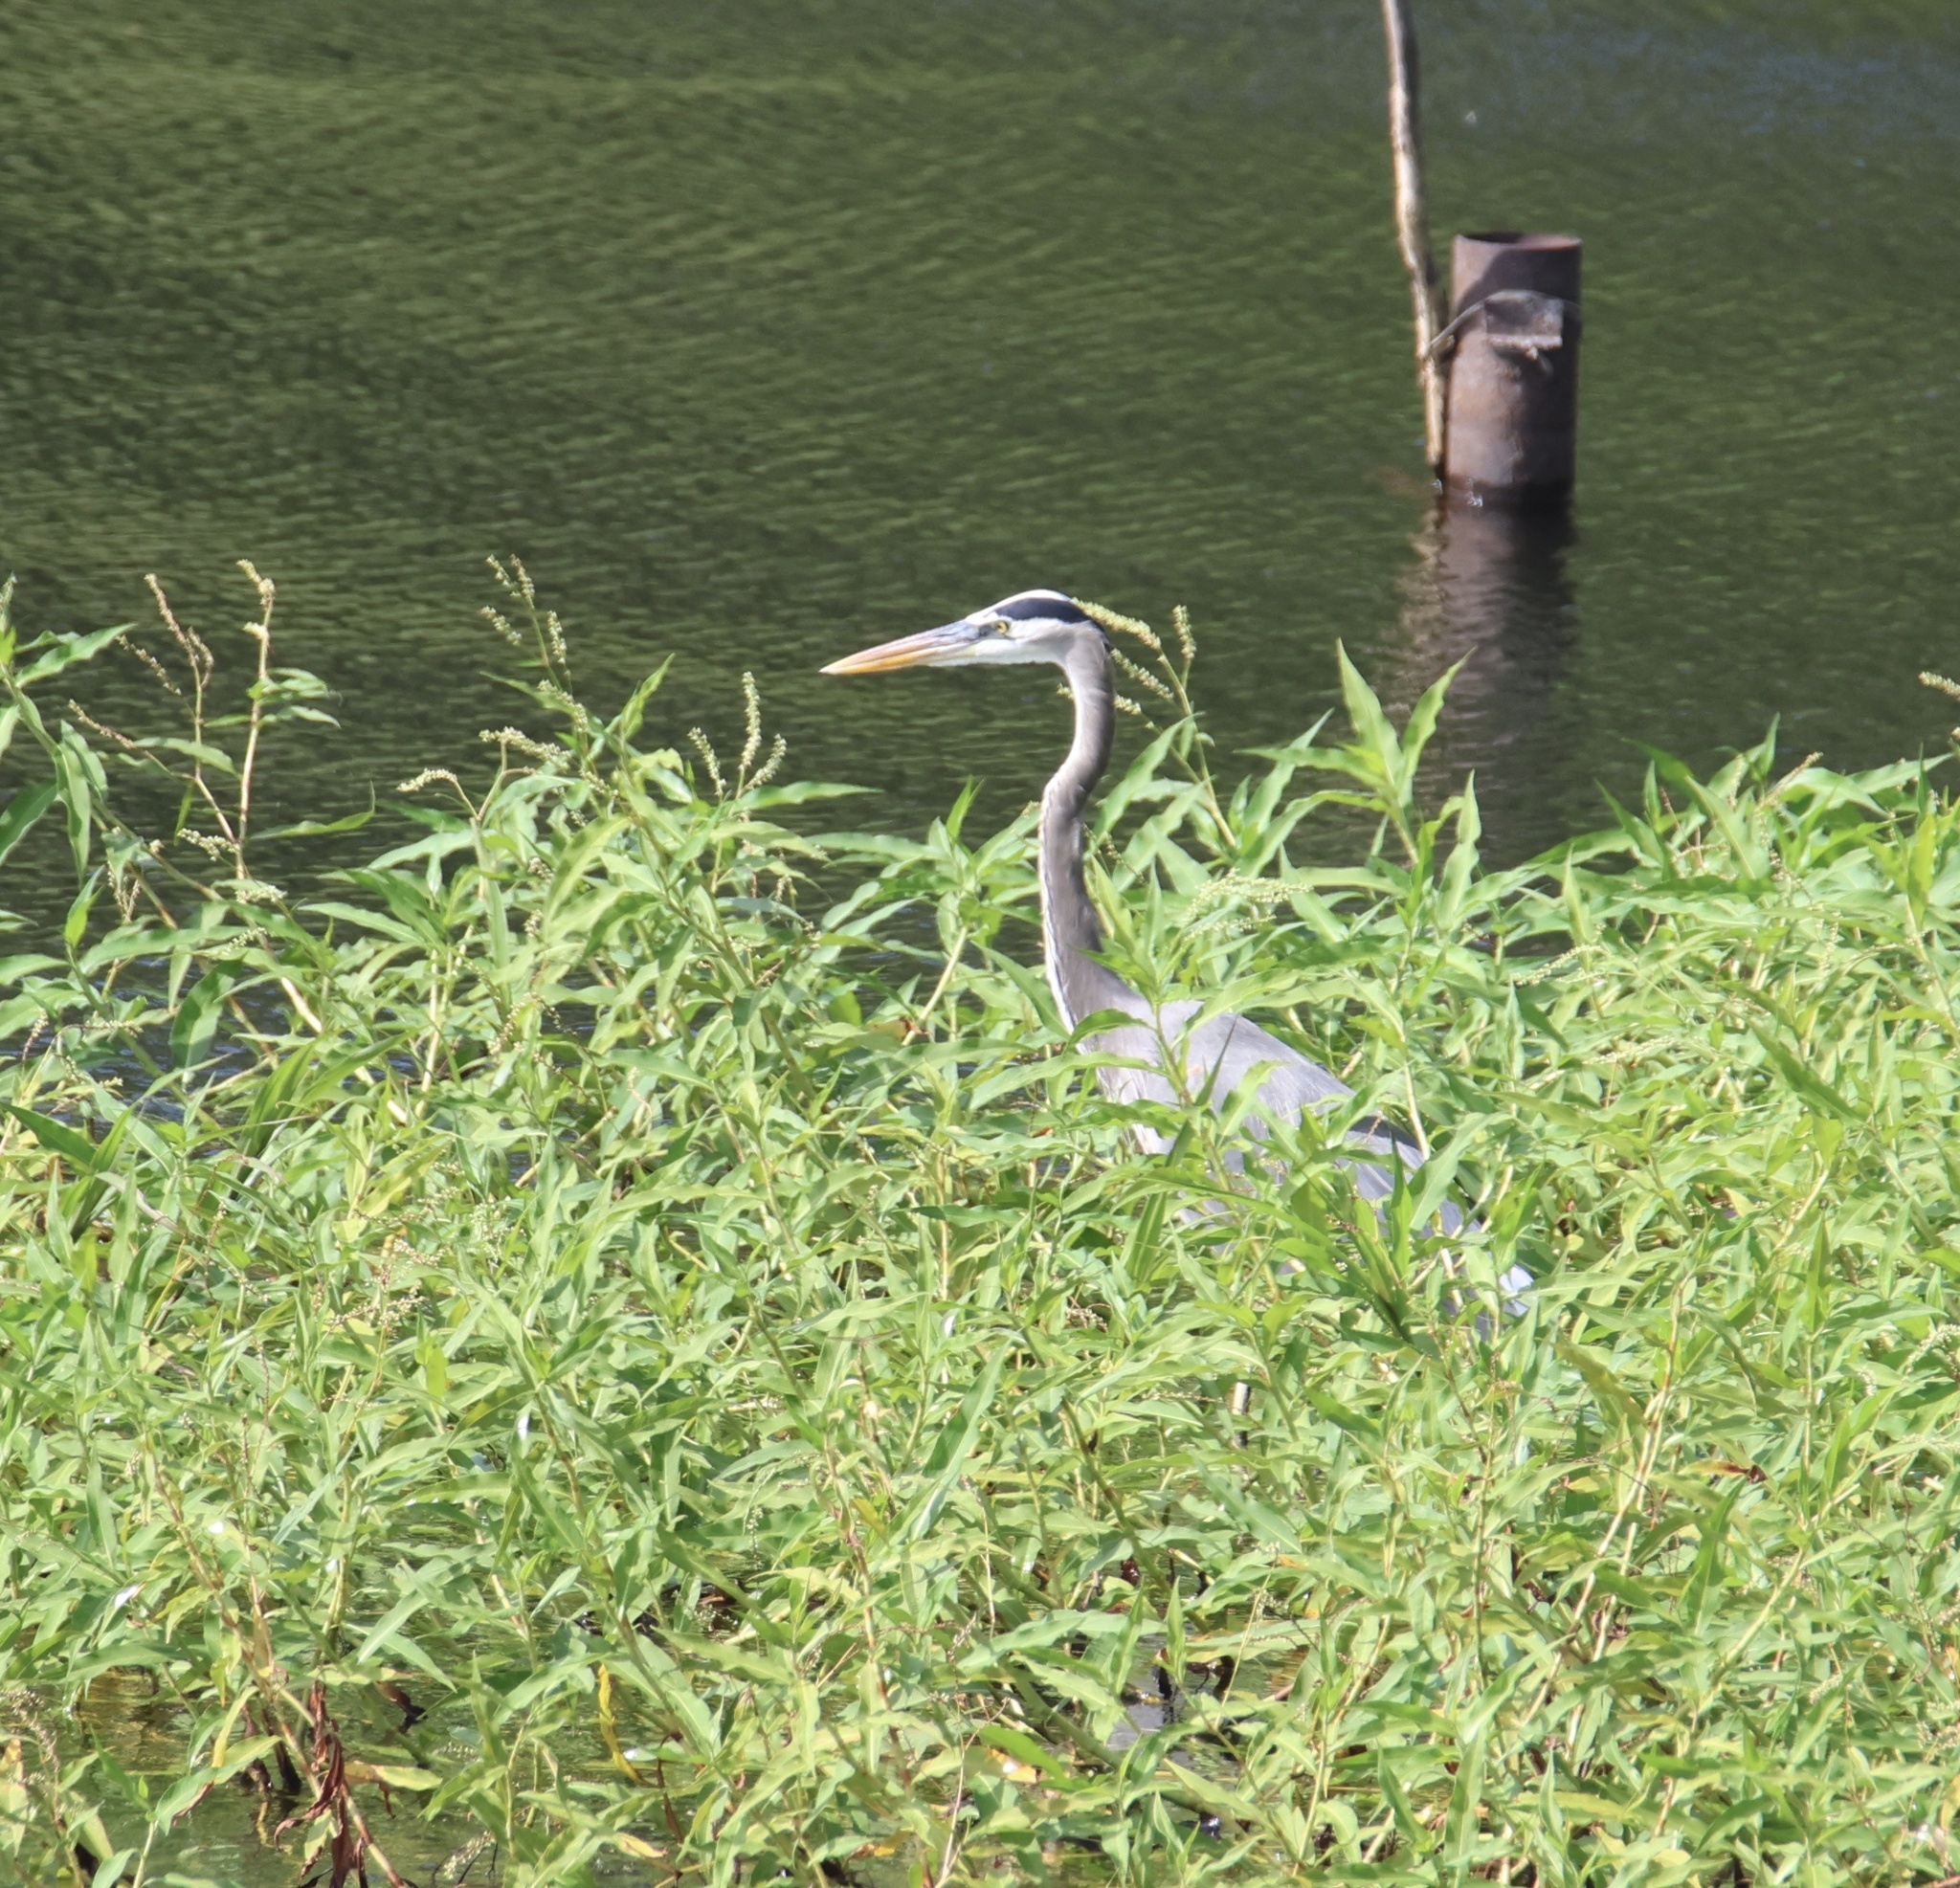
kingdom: Animalia
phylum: Chordata
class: Aves
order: Pelecaniformes
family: Ardeidae
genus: Ardea
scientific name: Ardea herodias
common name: Great blue heron
